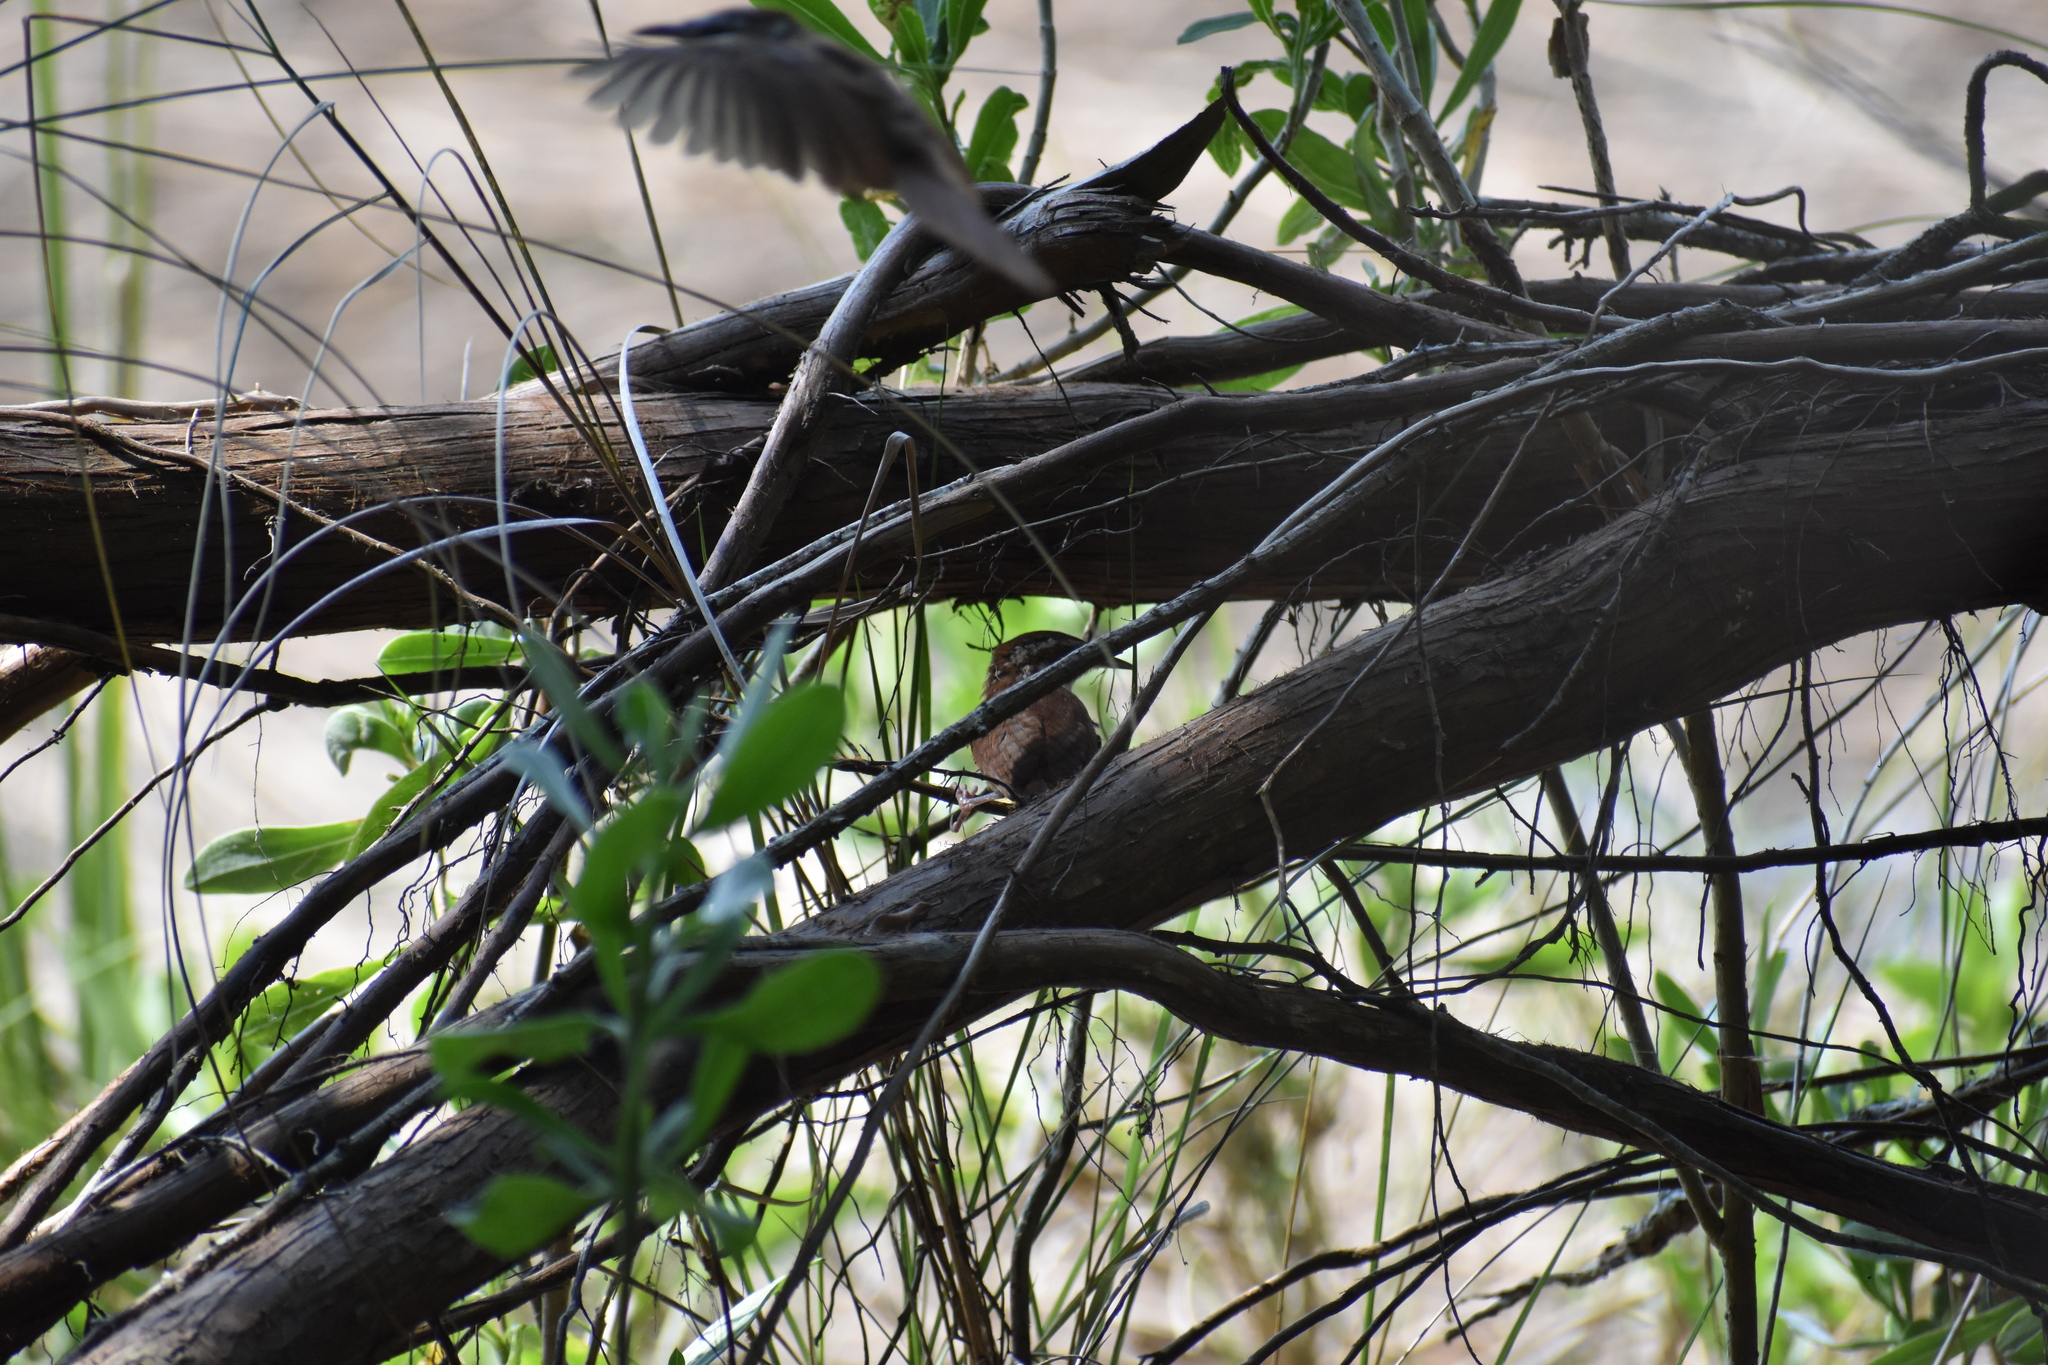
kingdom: Animalia
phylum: Chordata
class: Aves
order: Passeriformes
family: Troglodytidae
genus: Thryothorus
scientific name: Thryothorus ludovicianus
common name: Carolina wren
